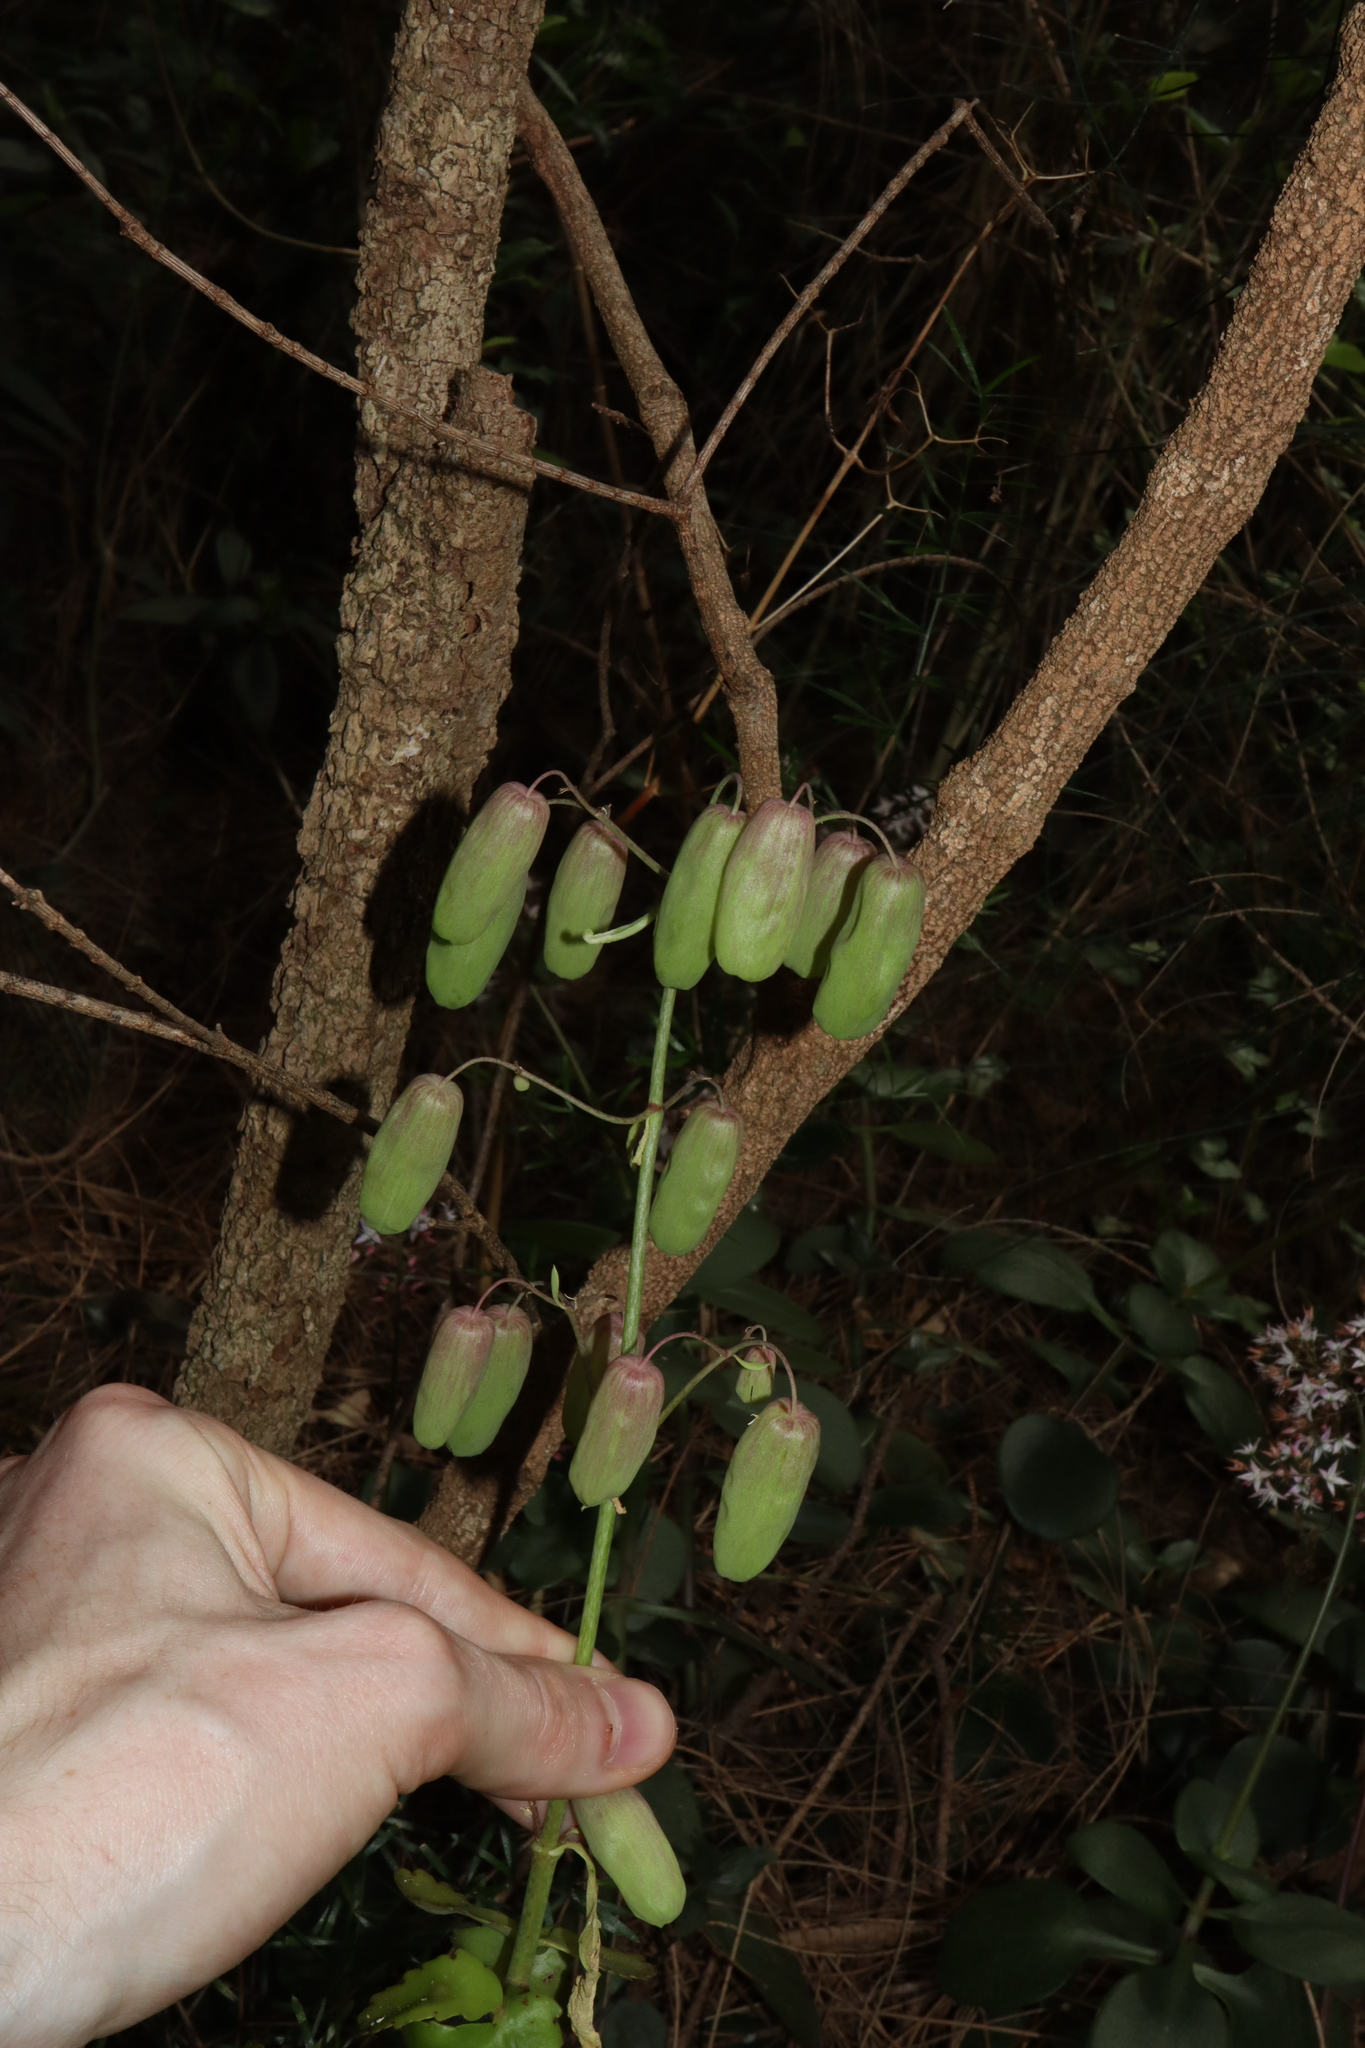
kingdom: Plantae
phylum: Tracheophyta
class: Magnoliopsida
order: Saxifragales
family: Crassulaceae
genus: Kalanchoe
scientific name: Kalanchoe pinnata
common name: Cathedral bells
